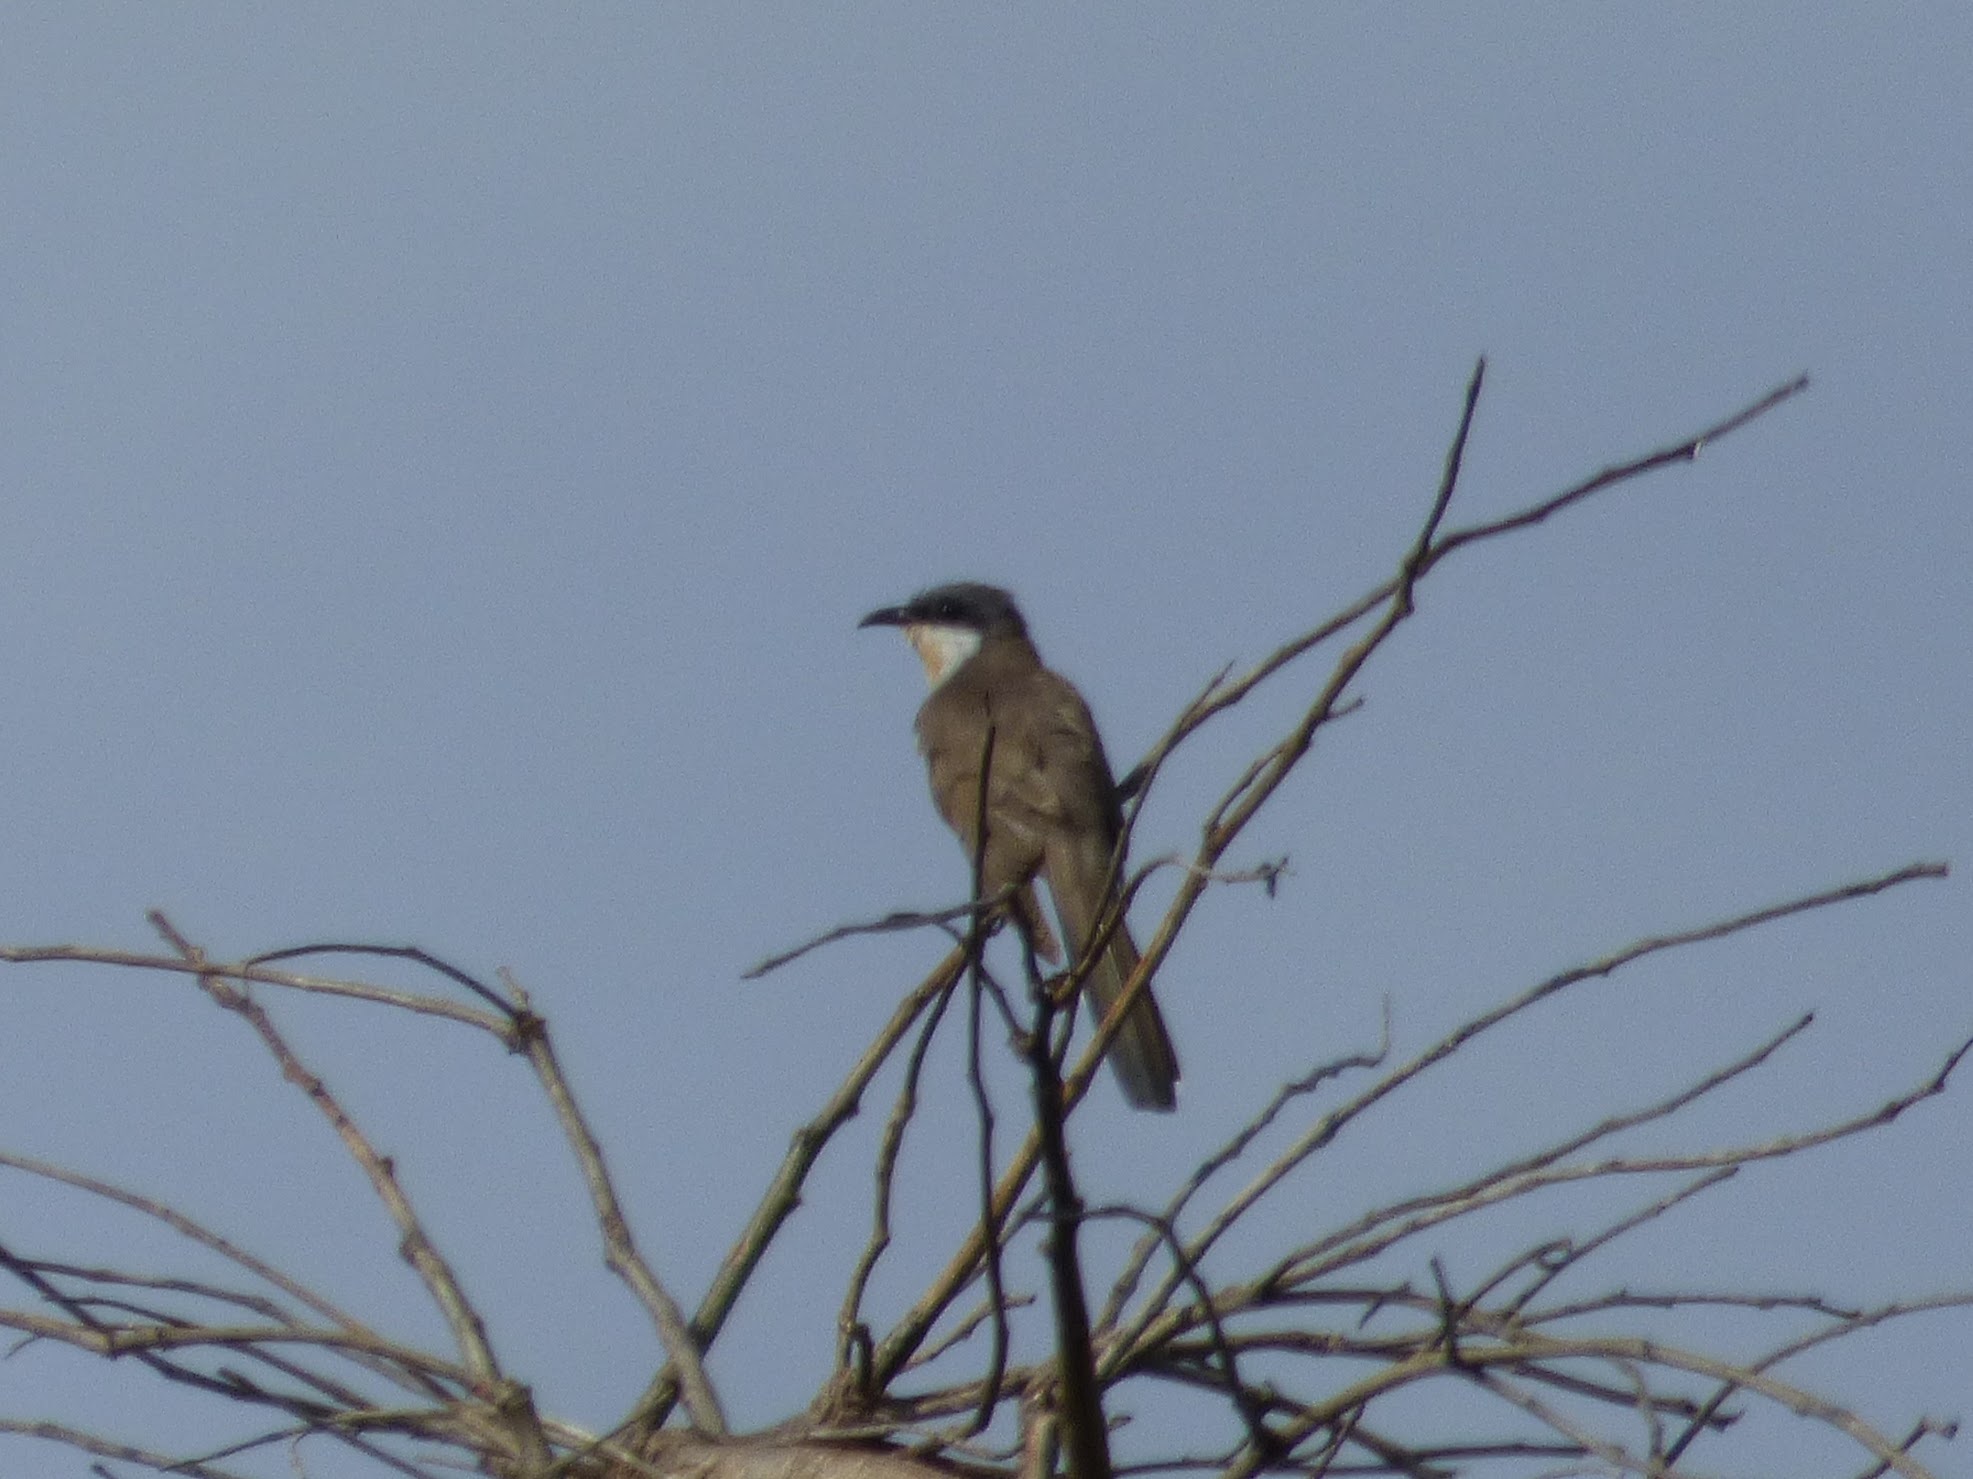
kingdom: Animalia
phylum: Chordata
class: Aves
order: Cuculiformes
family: Cuculidae
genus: Coccyzus
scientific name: Coccyzus melacoryphus
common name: Dark-billed cuckoo
